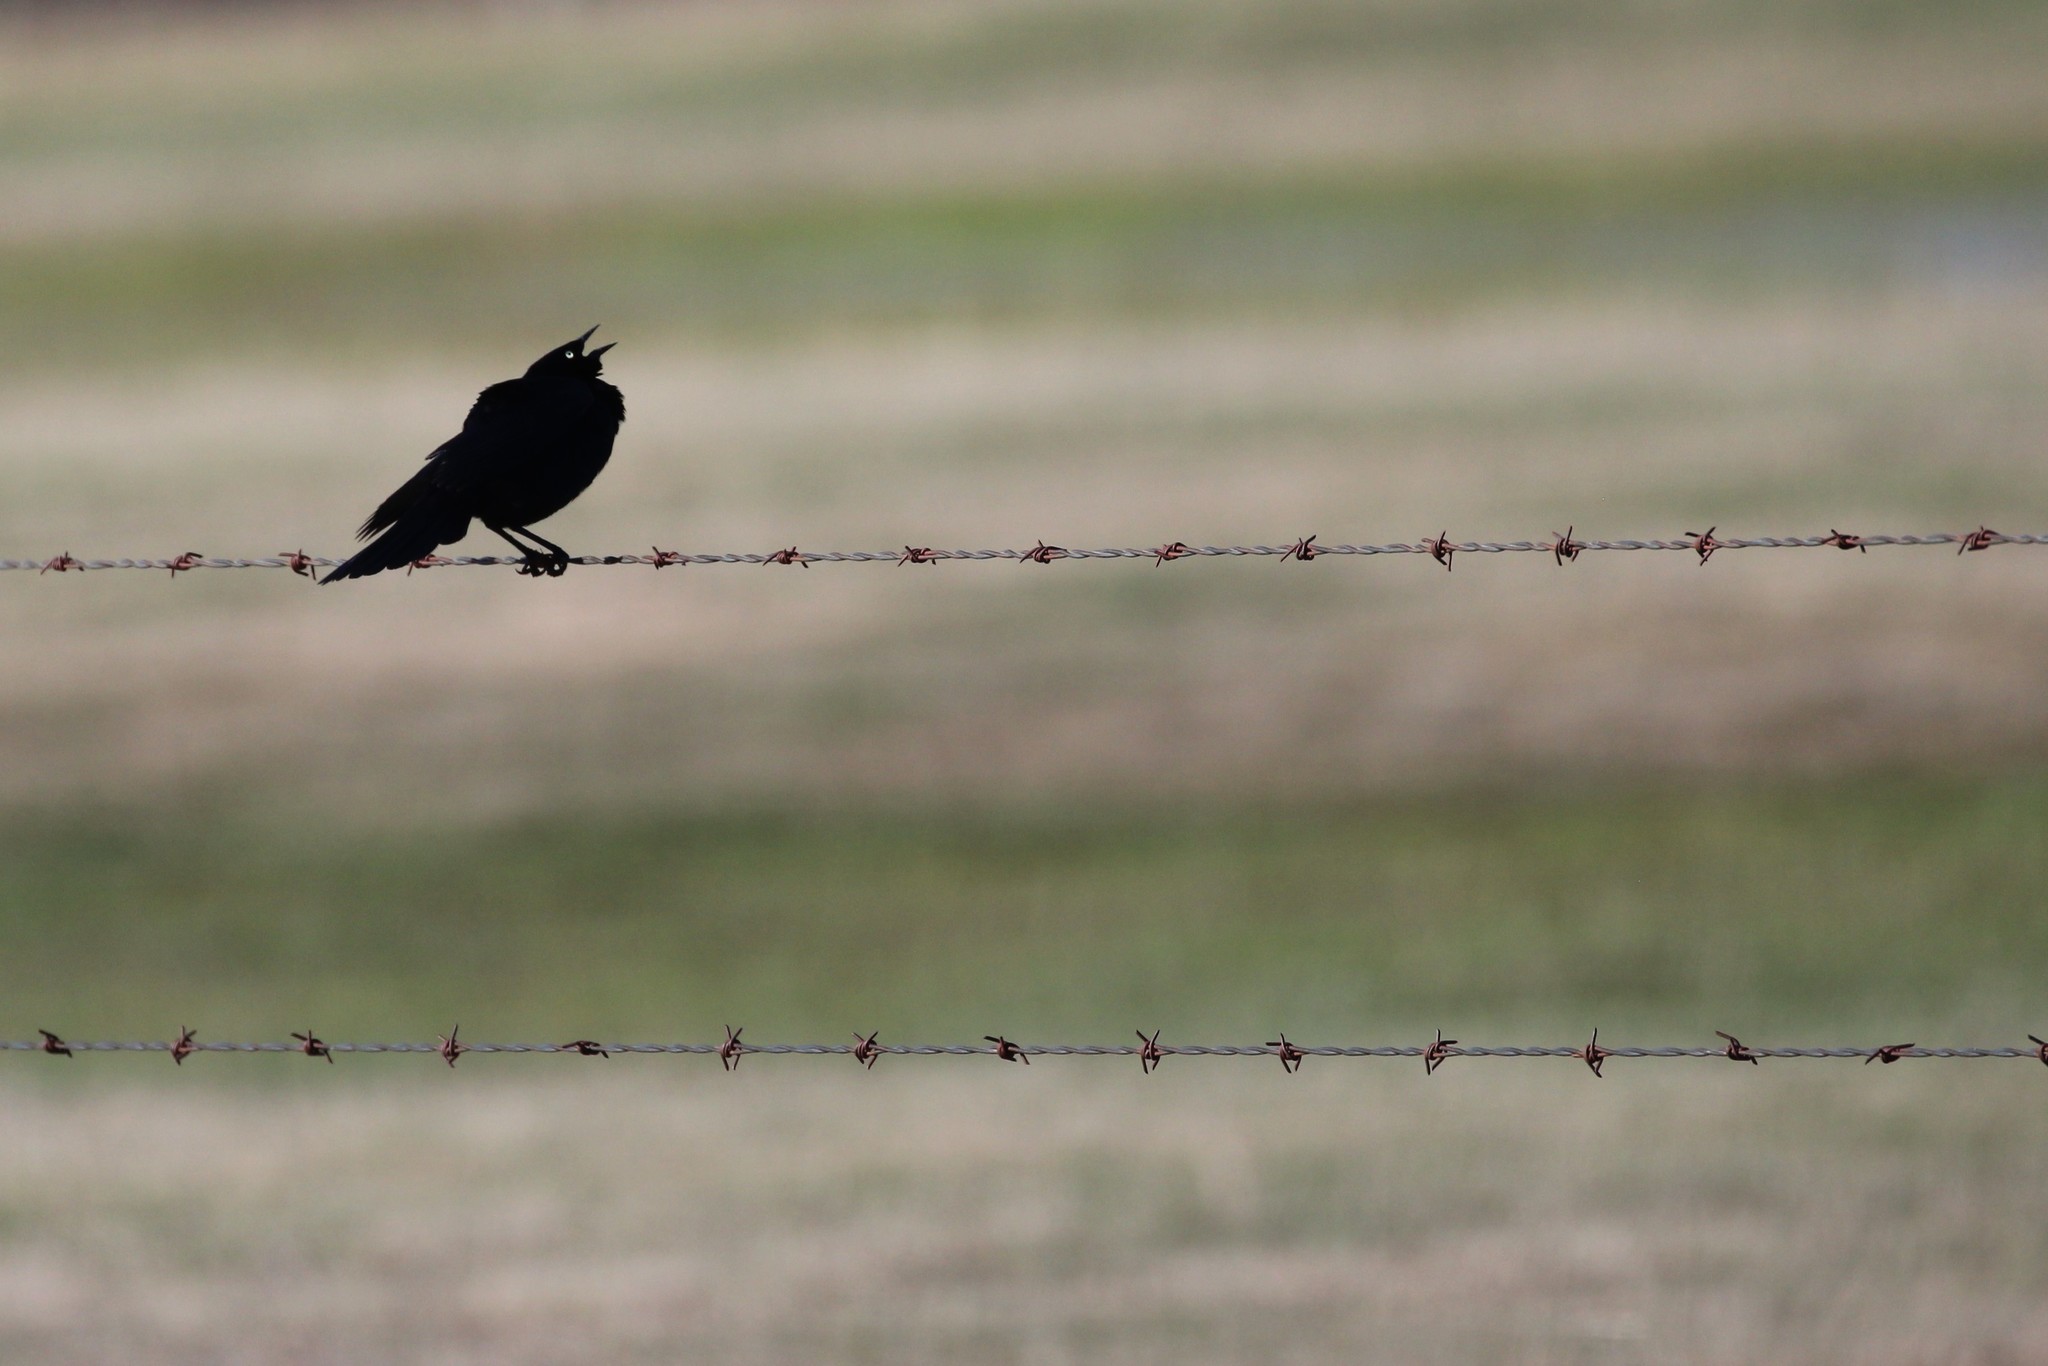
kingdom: Animalia
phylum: Chordata
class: Aves
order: Passeriformes
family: Icteridae
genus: Euphagus
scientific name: Euphagus cyanocephalus
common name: Brewer's blackbird
